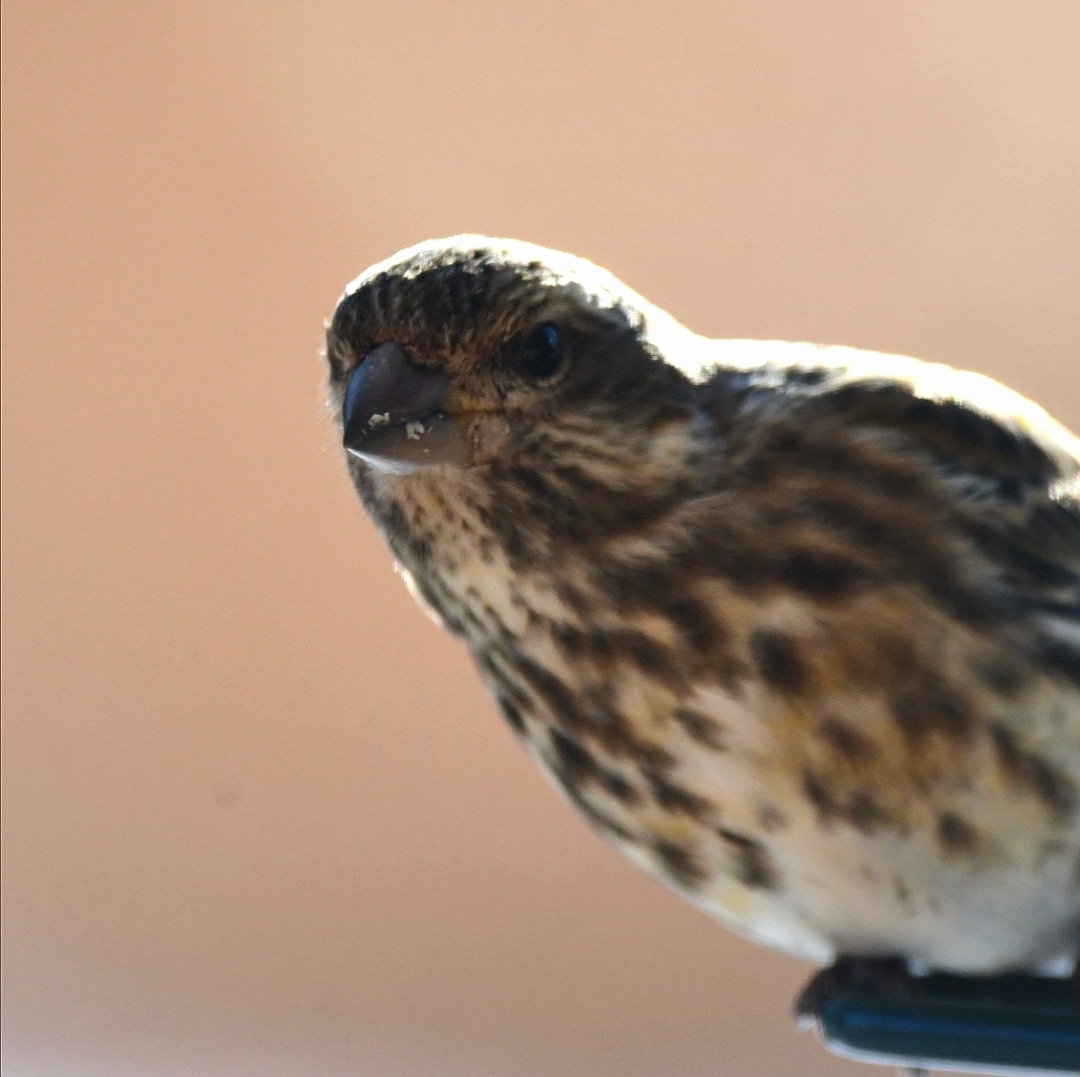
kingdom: Animalia
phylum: Chordata
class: Aves
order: Passeriformes
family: Fringillidae
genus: Haemorhous
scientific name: Haemorhous purpureus
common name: Purple finch
